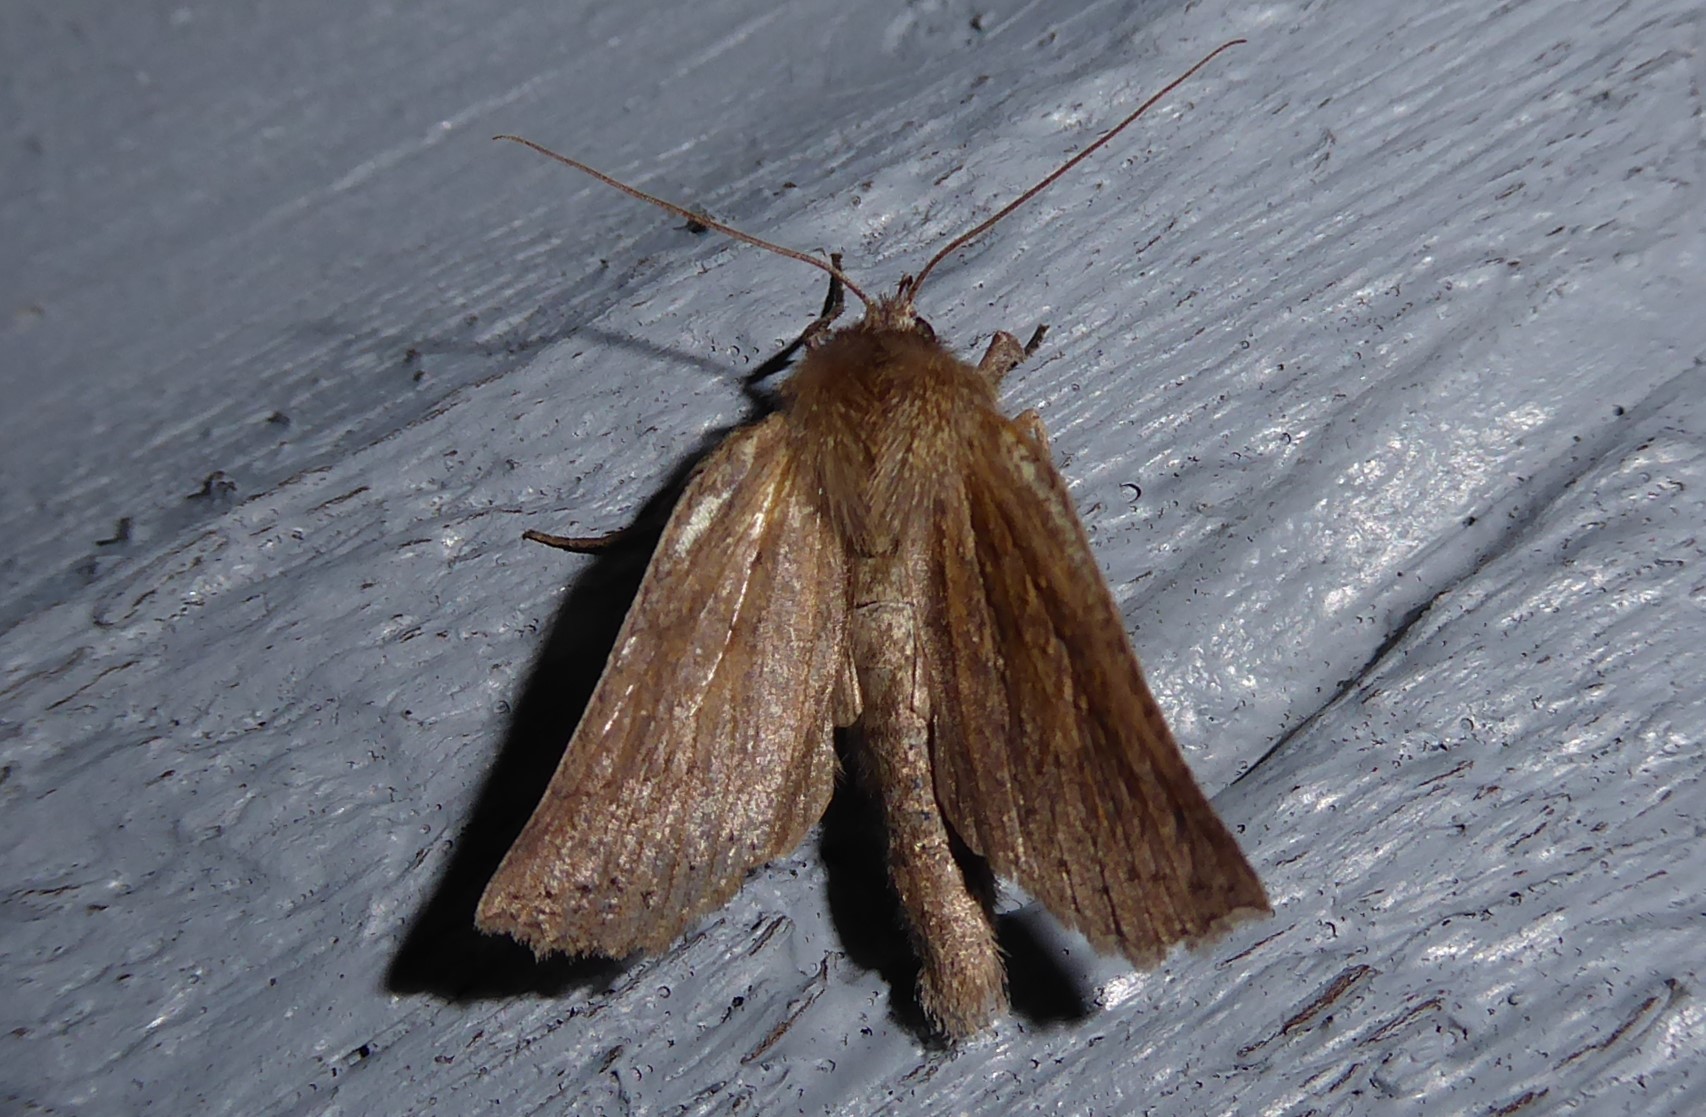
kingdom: Animalia
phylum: Arthropoda
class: Insecta
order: Lepidoptera
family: Geometridae
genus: Declana
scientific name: Declana leptomera
